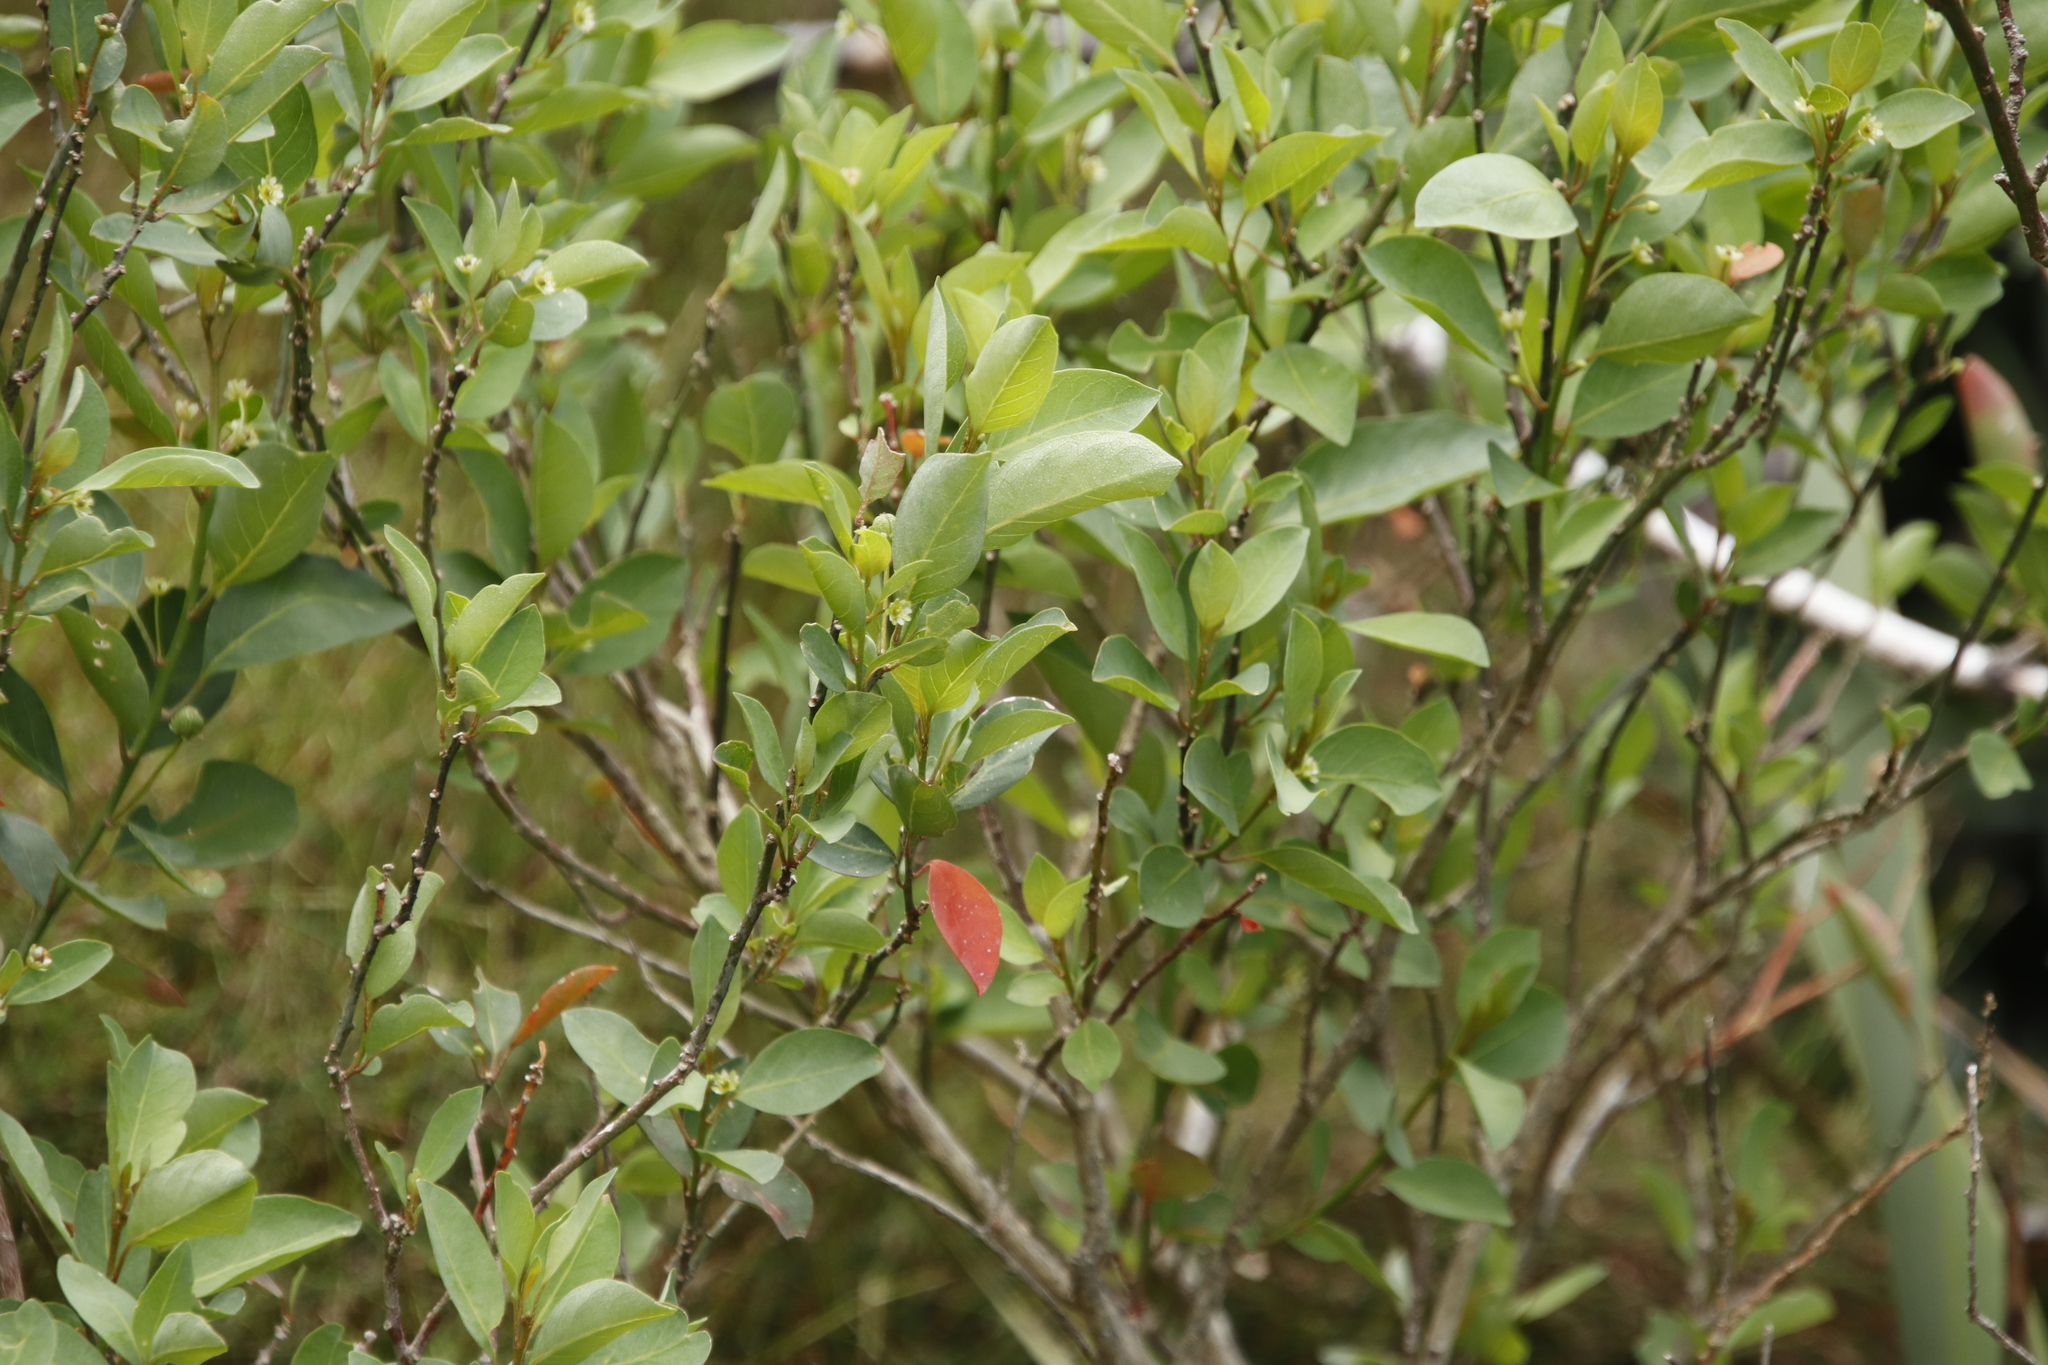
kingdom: Plantae
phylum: Tracheophyta
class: Magnoliopsida
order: Malpighiales
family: Peraceae
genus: Clutia
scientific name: Clutia pulchella
